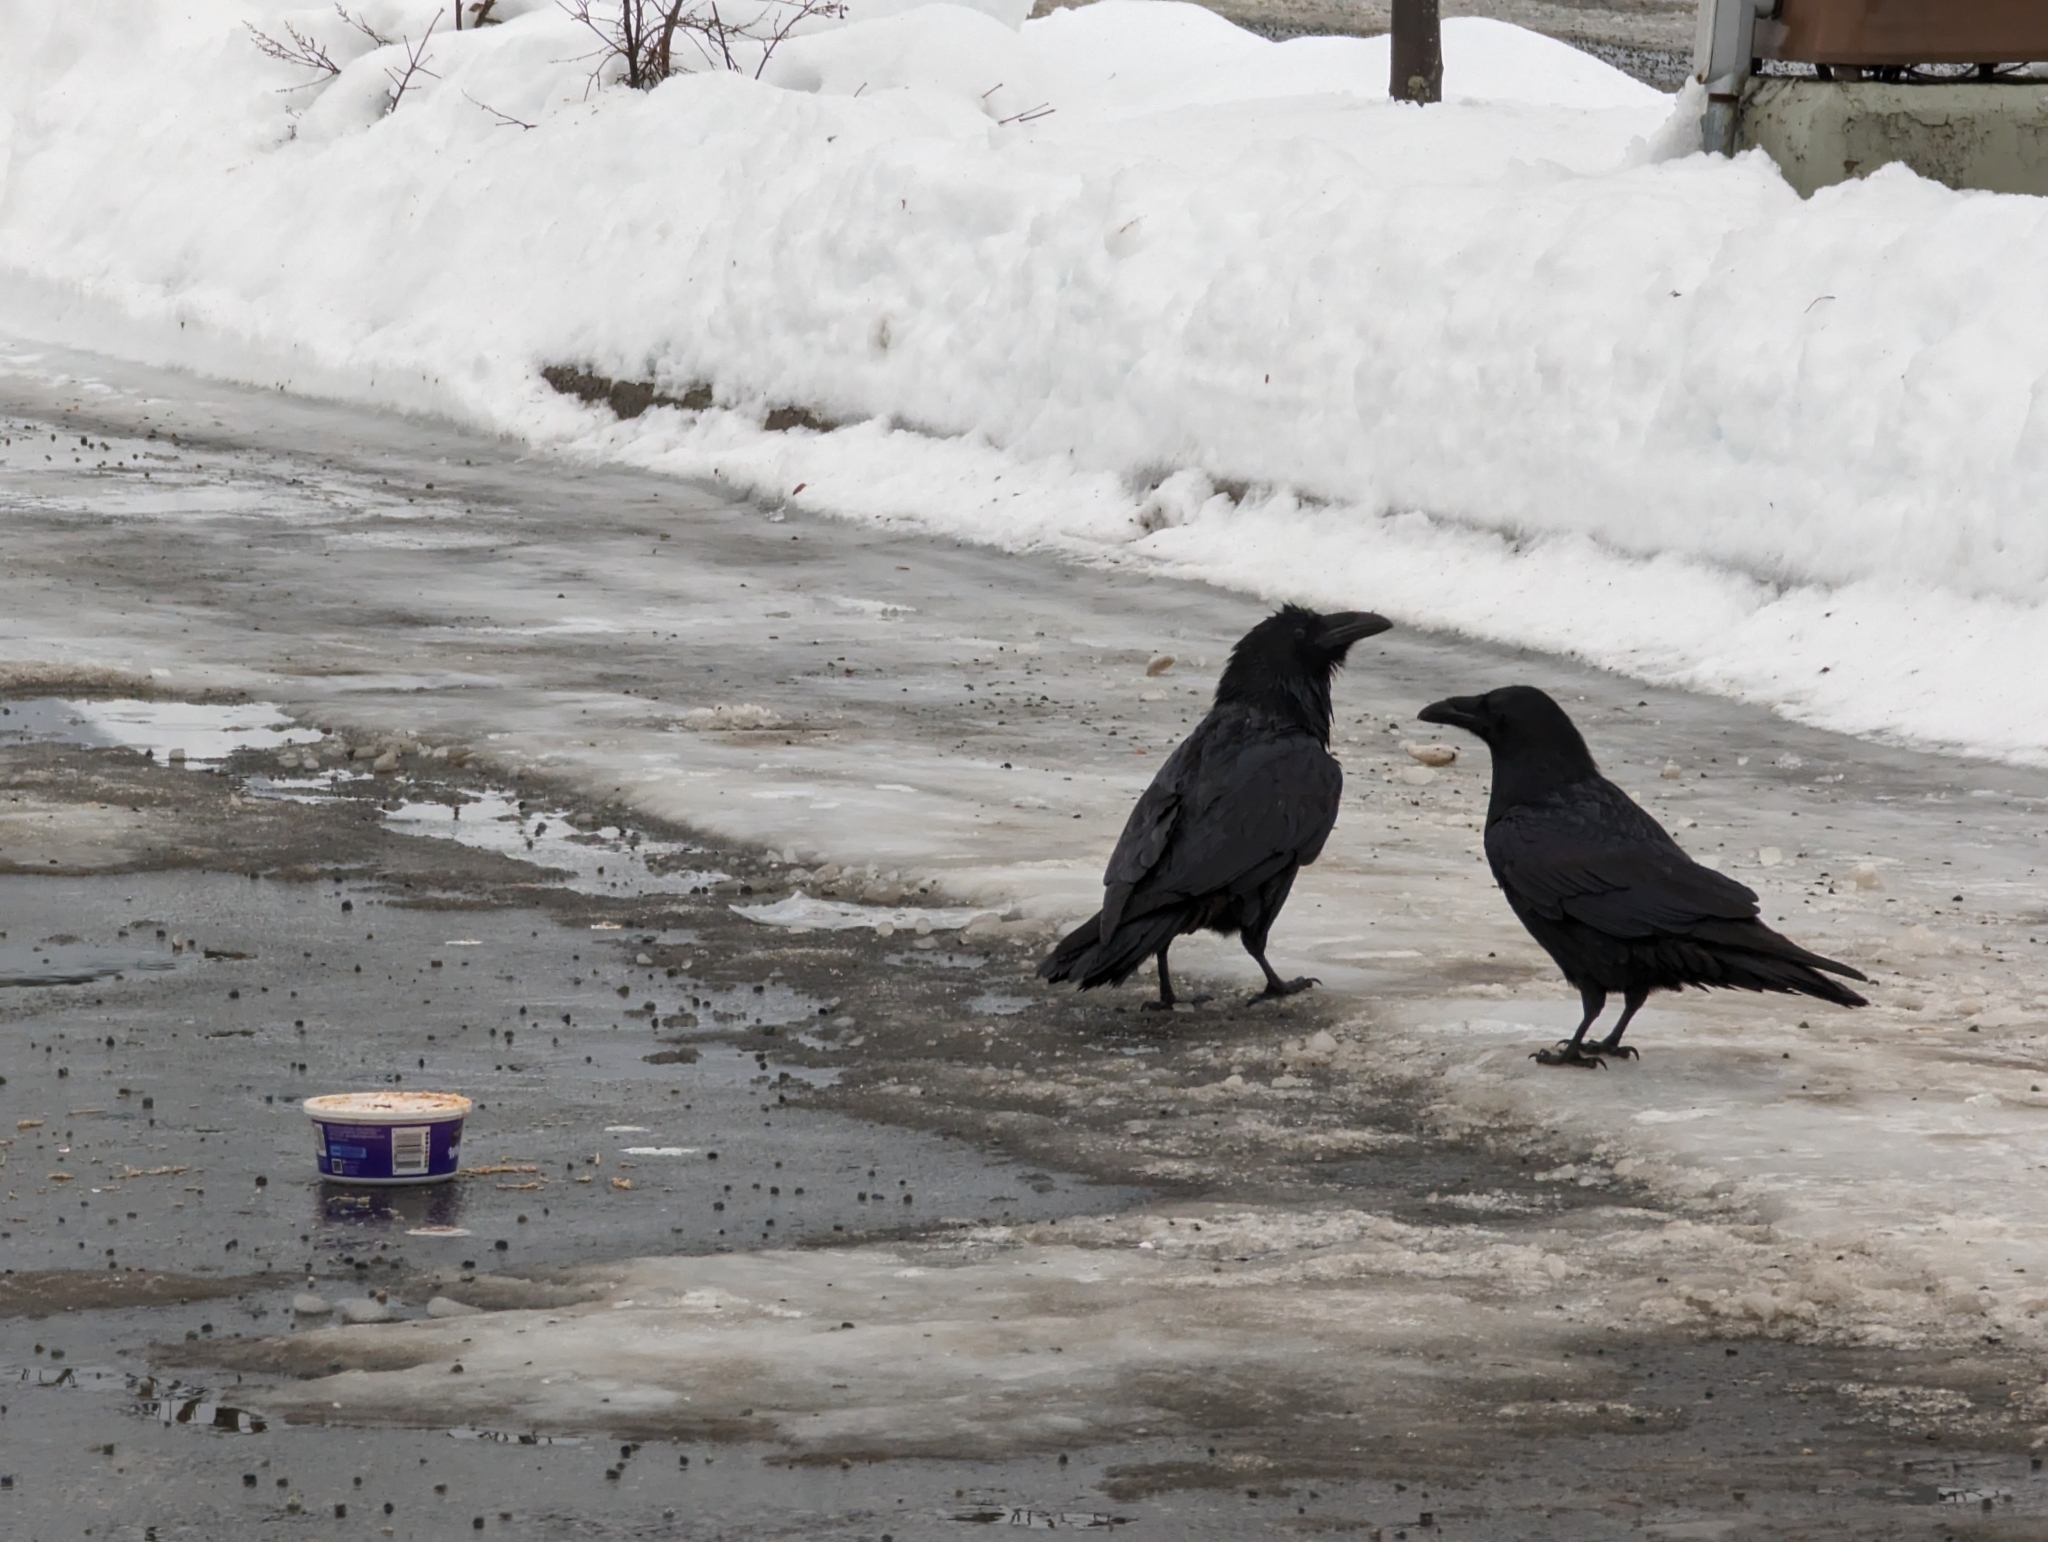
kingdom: Animalia
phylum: Chordata
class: Aves
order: Passeriformes
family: Corvidae
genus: Corvus
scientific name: Corvus corax
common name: Common raven
